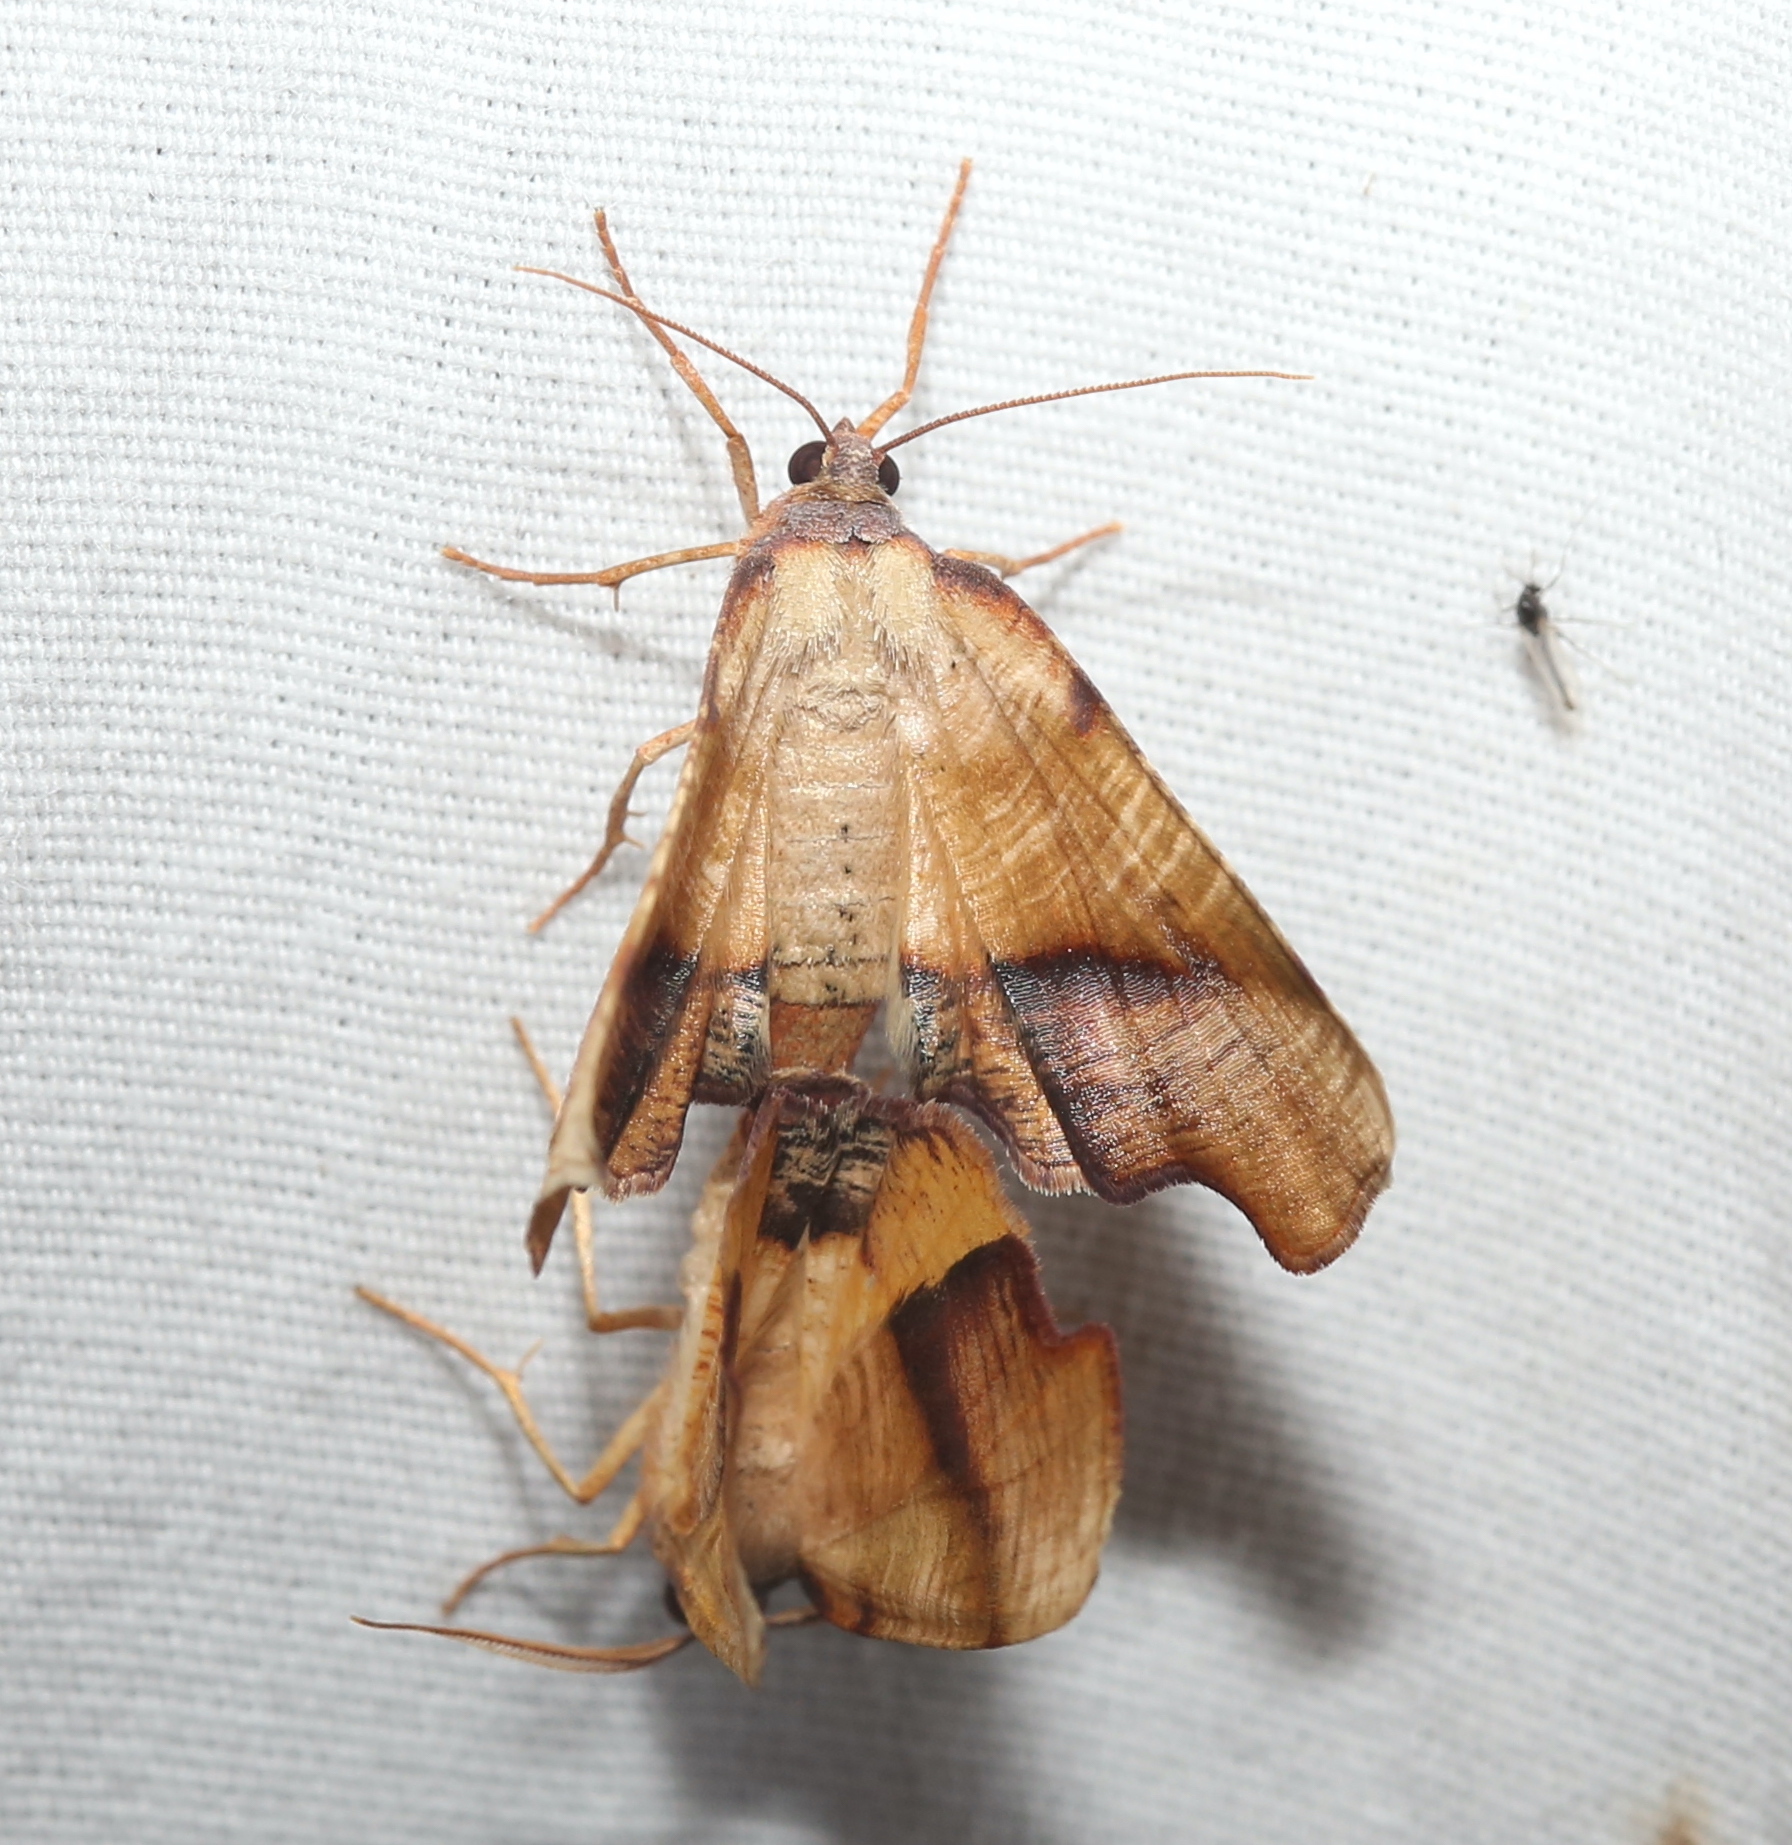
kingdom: Animalia
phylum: Arthropoda
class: Insecta
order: Lepidoptera
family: Geometridae
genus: Plagodis
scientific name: Plagodis fervidaria
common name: Fervid plagodis
